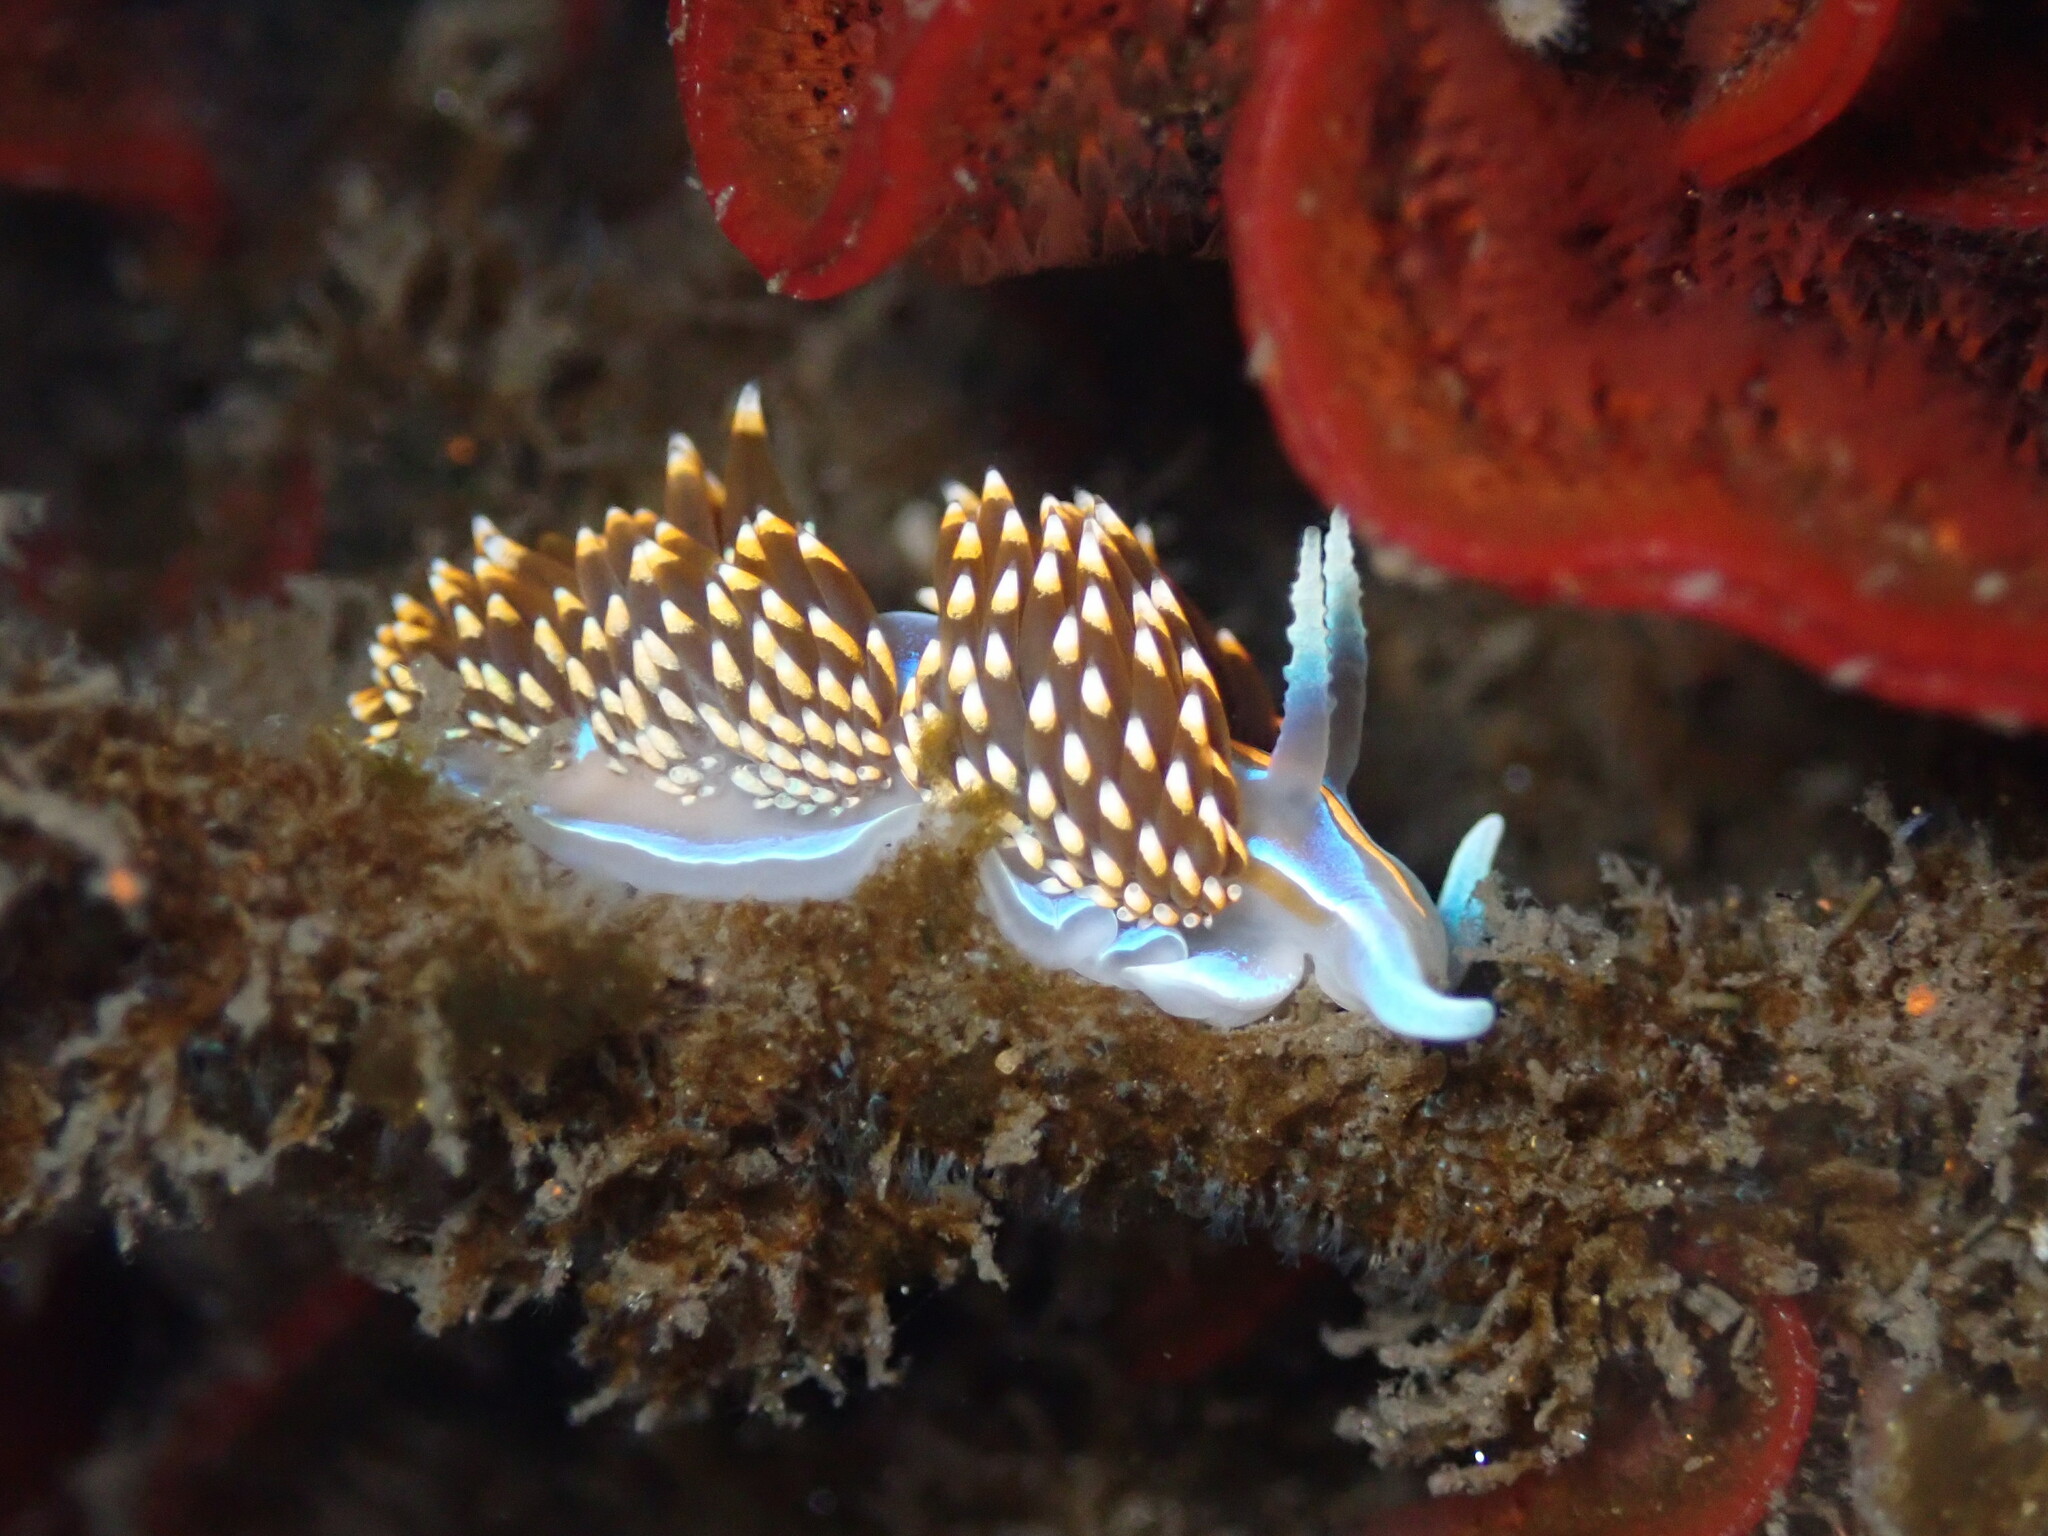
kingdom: Animalia
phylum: Mollusca
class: Gastropoda
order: Nudibranchia
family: Myrrhinidae
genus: Hermissenda
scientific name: Hermissenda opalescens
